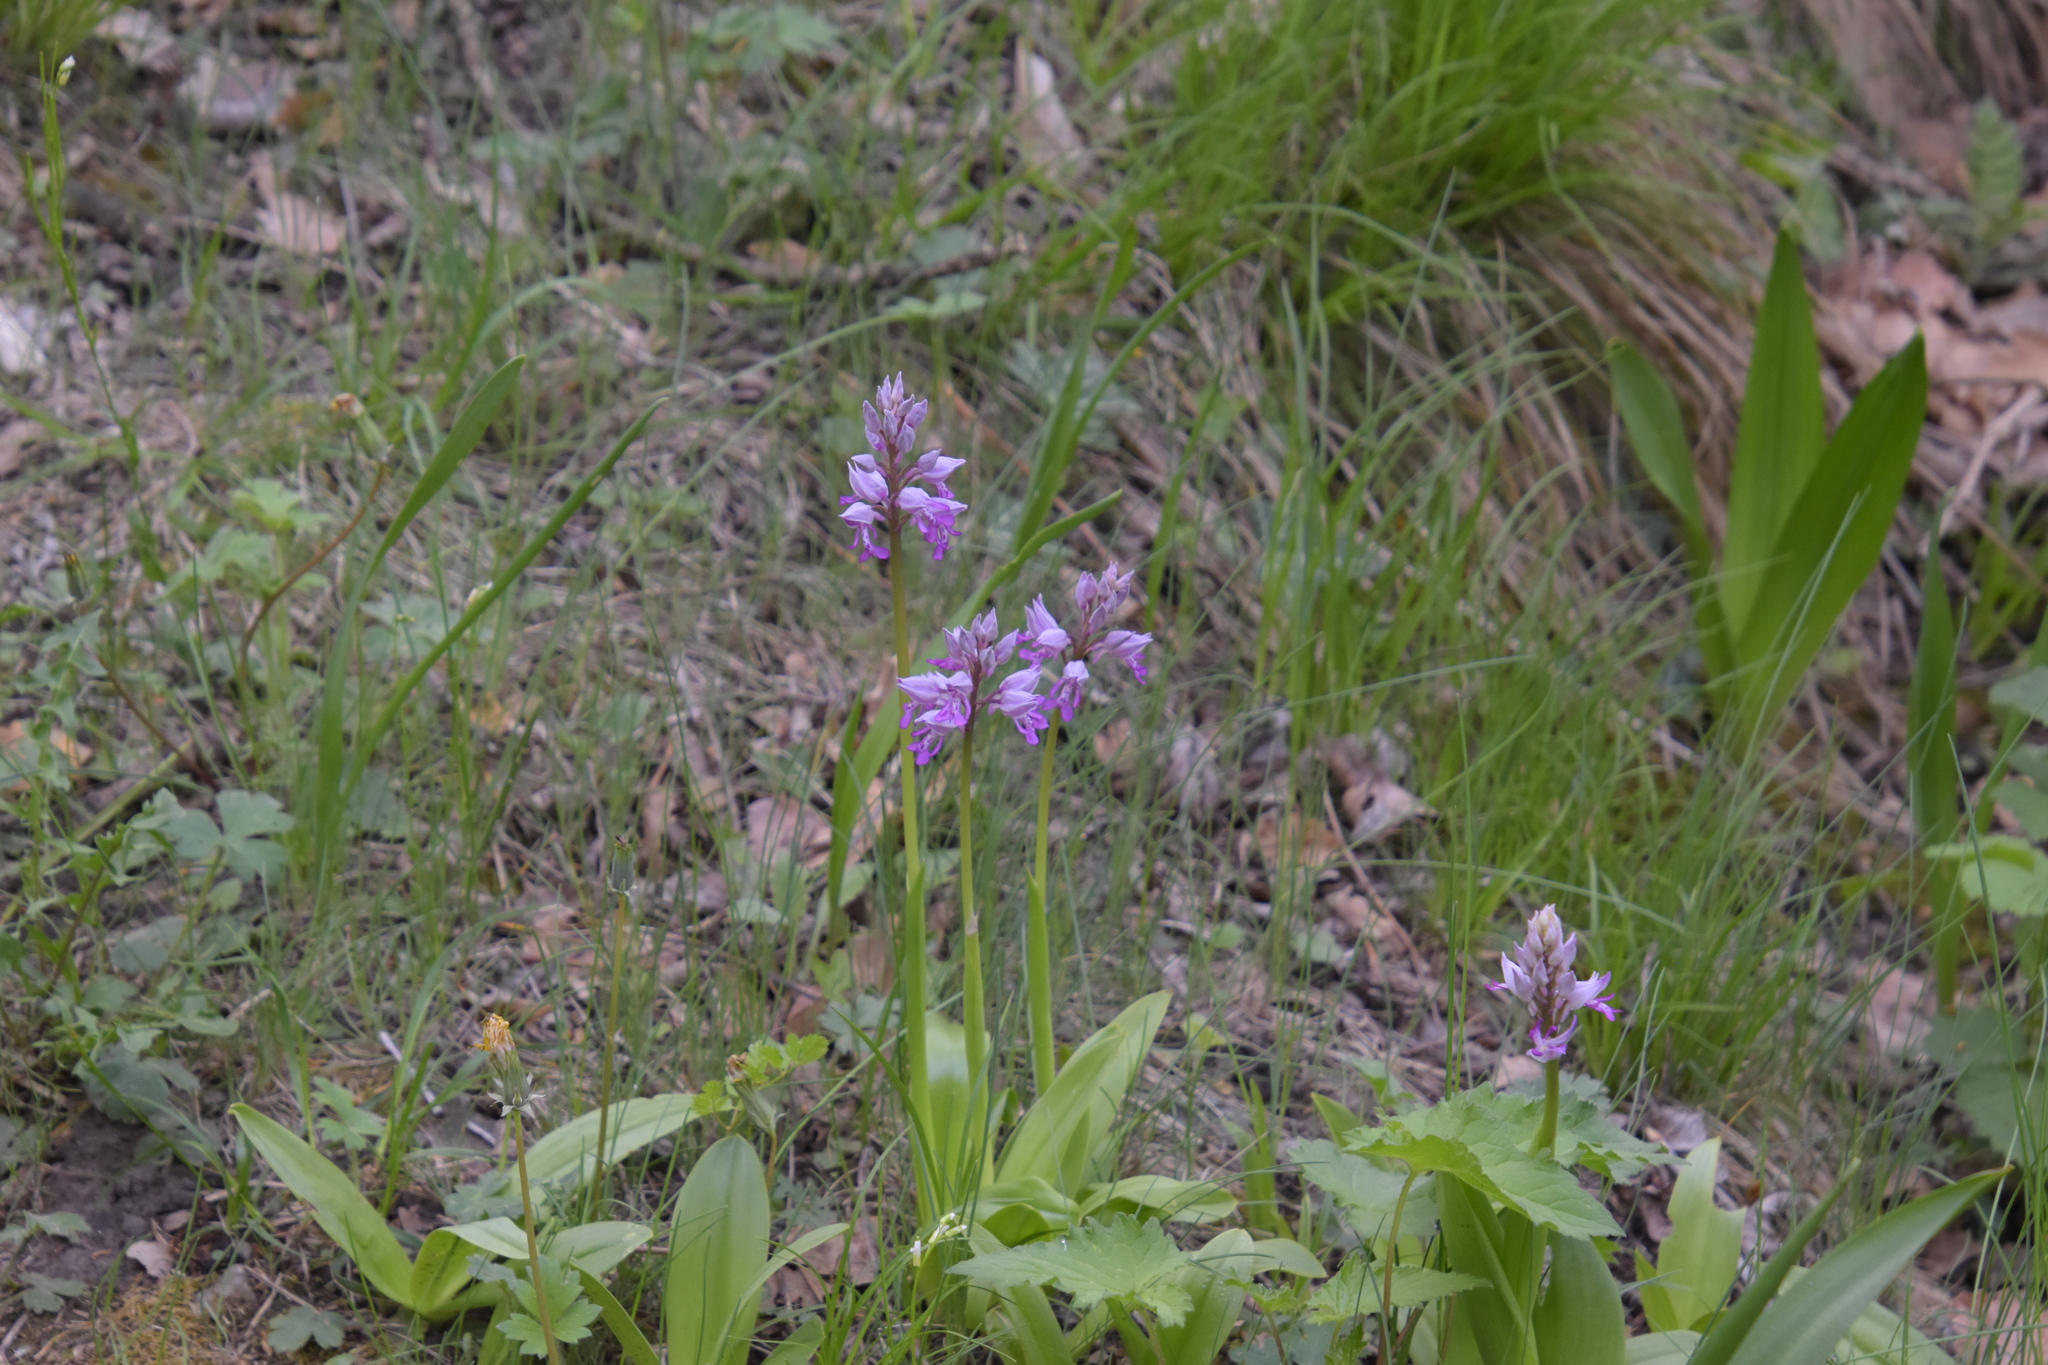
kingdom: Plantae
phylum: Tracheophyta
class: Liliopsida
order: Asparagales
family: Orchidaceae
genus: Orchis
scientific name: Orchis militaris
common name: Military orchid
